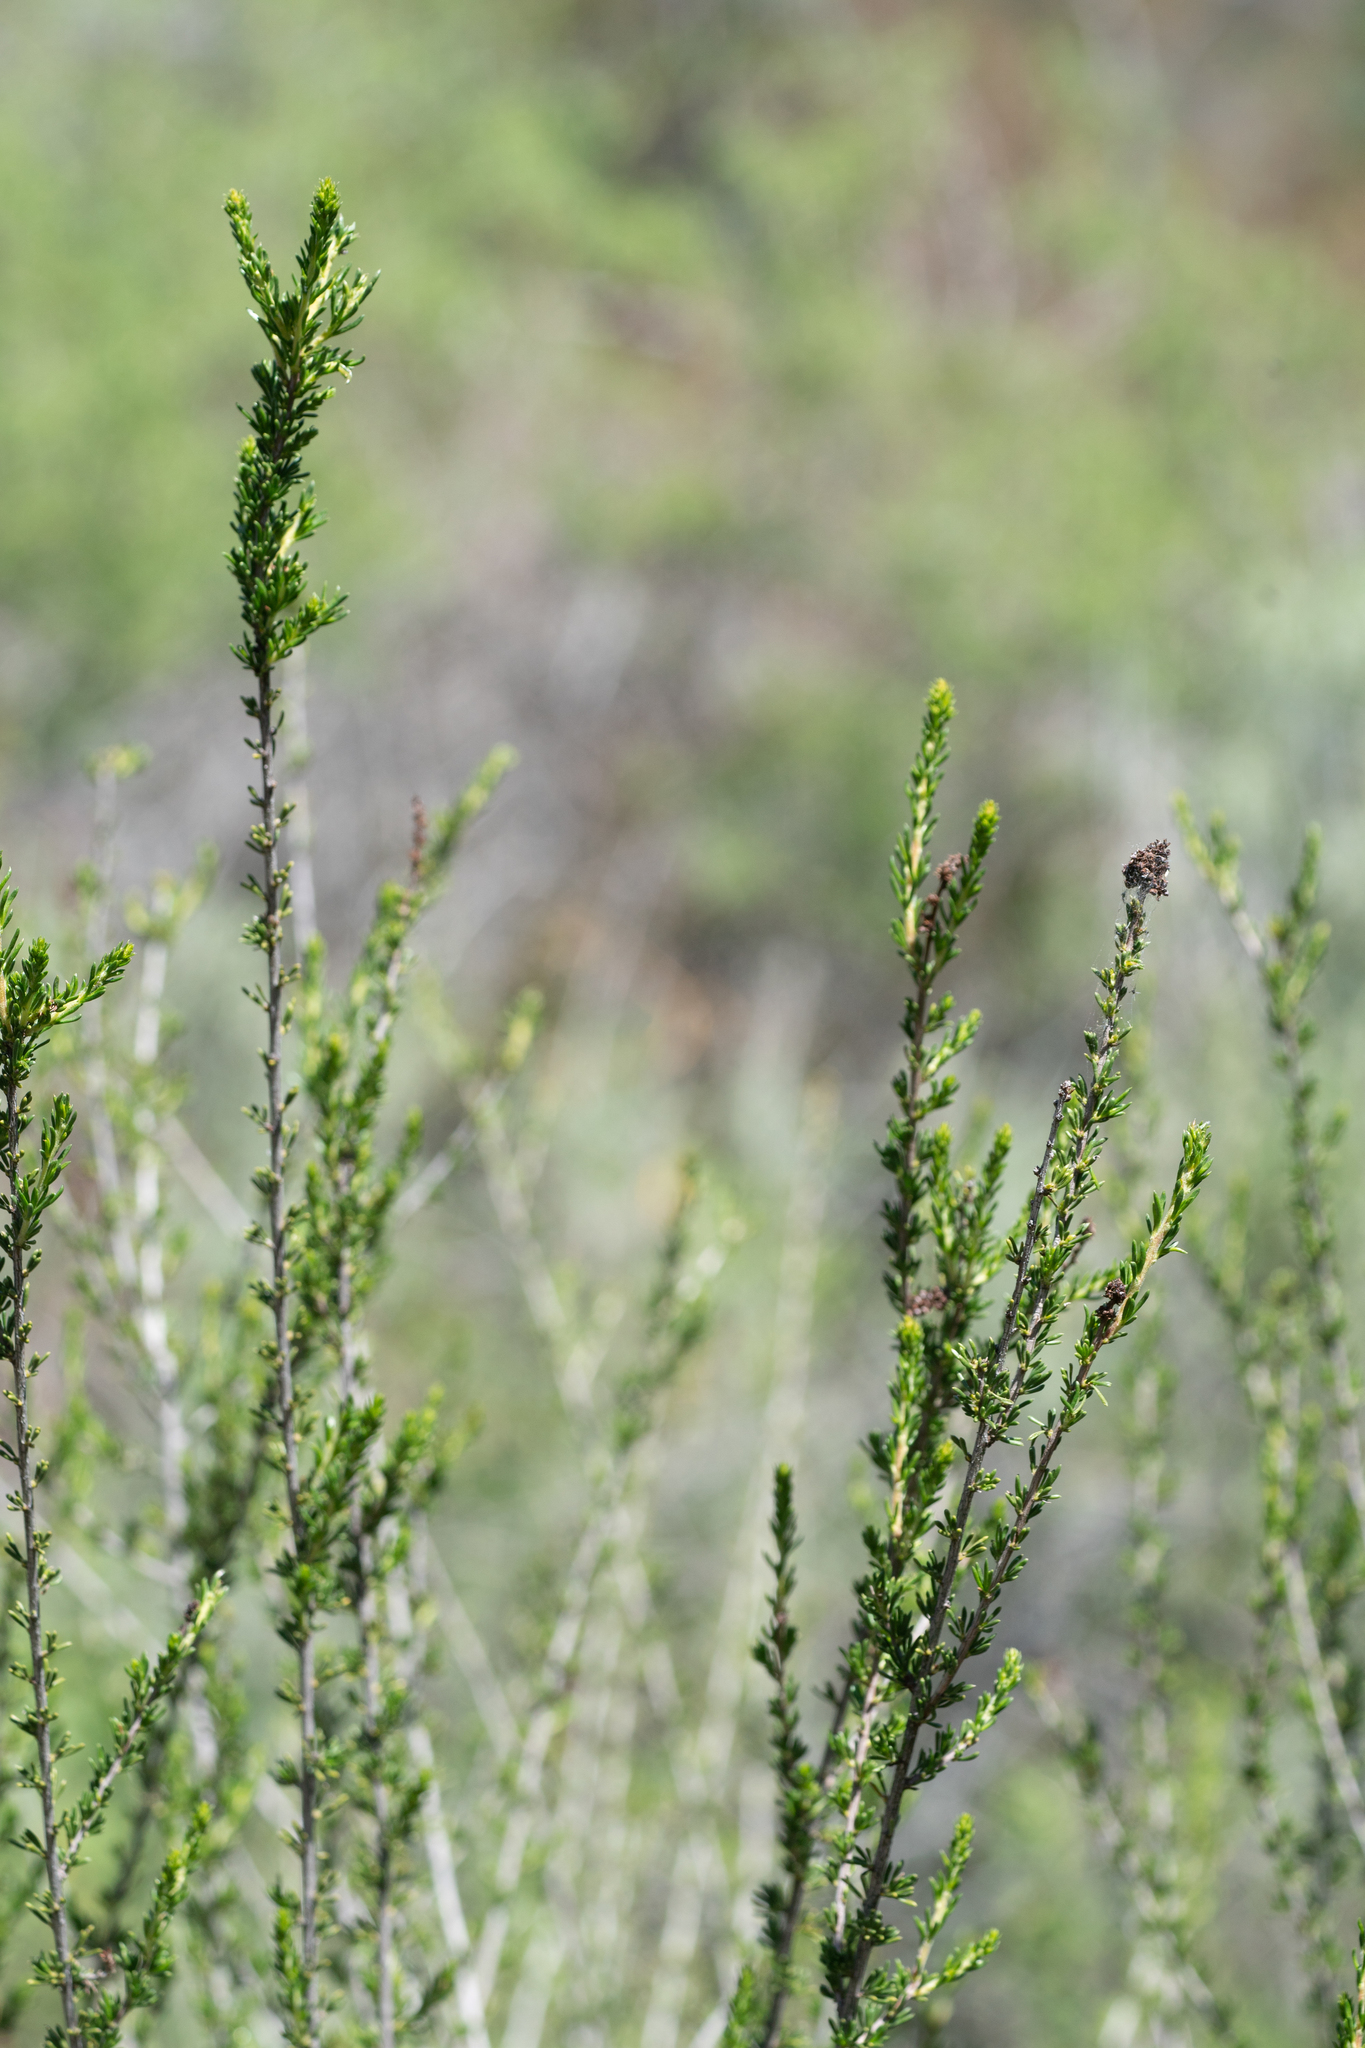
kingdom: Plantae
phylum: Tracheophyta
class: Magnoliopsida
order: Rosales
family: Rosaceae
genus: Adenostoma
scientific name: Adenostoma fasciculatum
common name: Chamise
